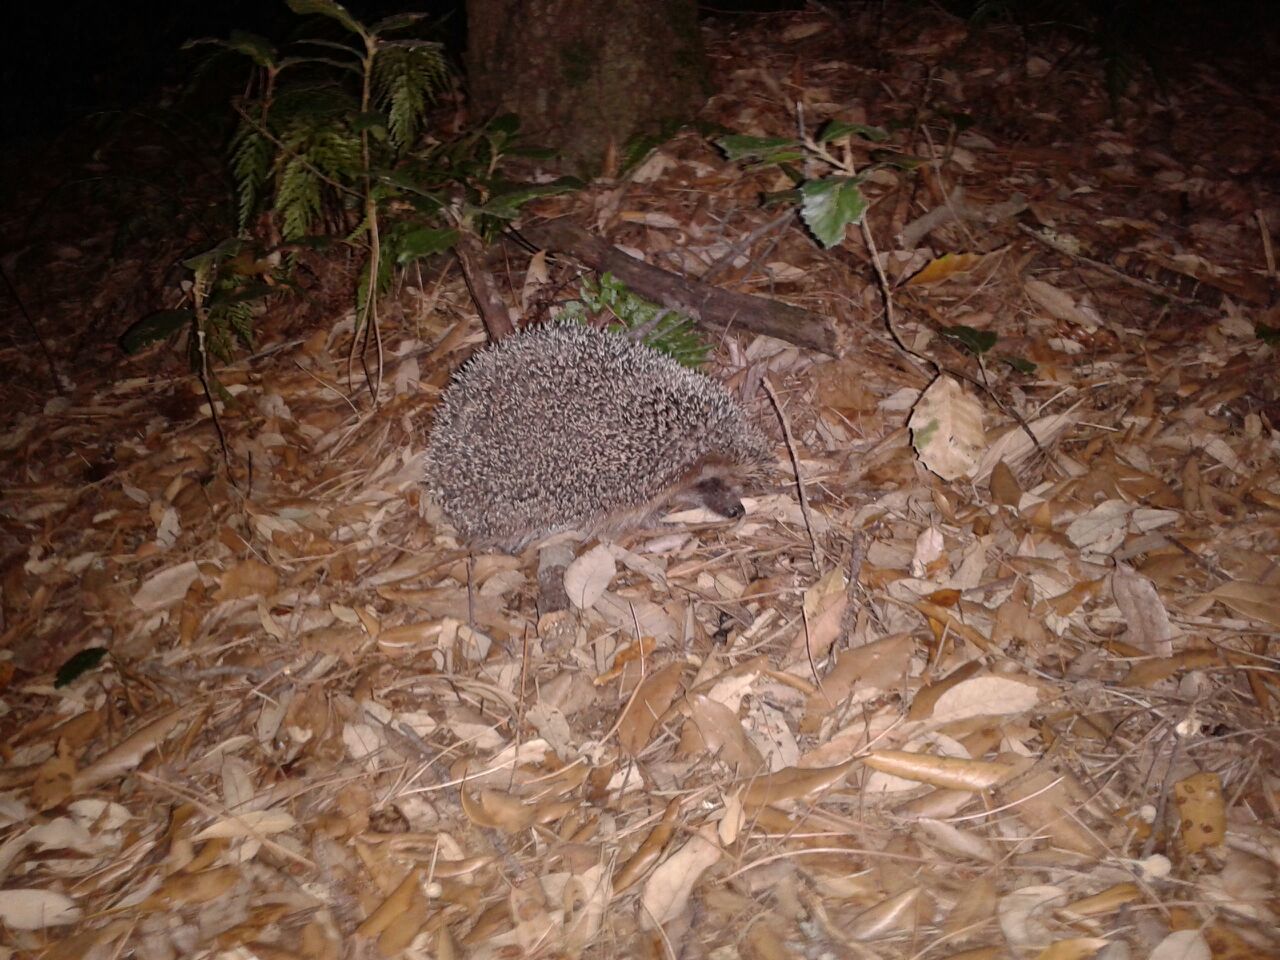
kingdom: Animalia
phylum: Chordata
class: Mammalia
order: Erinaceomorpha
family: Erinaceidae
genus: Erinaceus
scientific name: Erinaceus europaeus
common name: West european hedgehog
